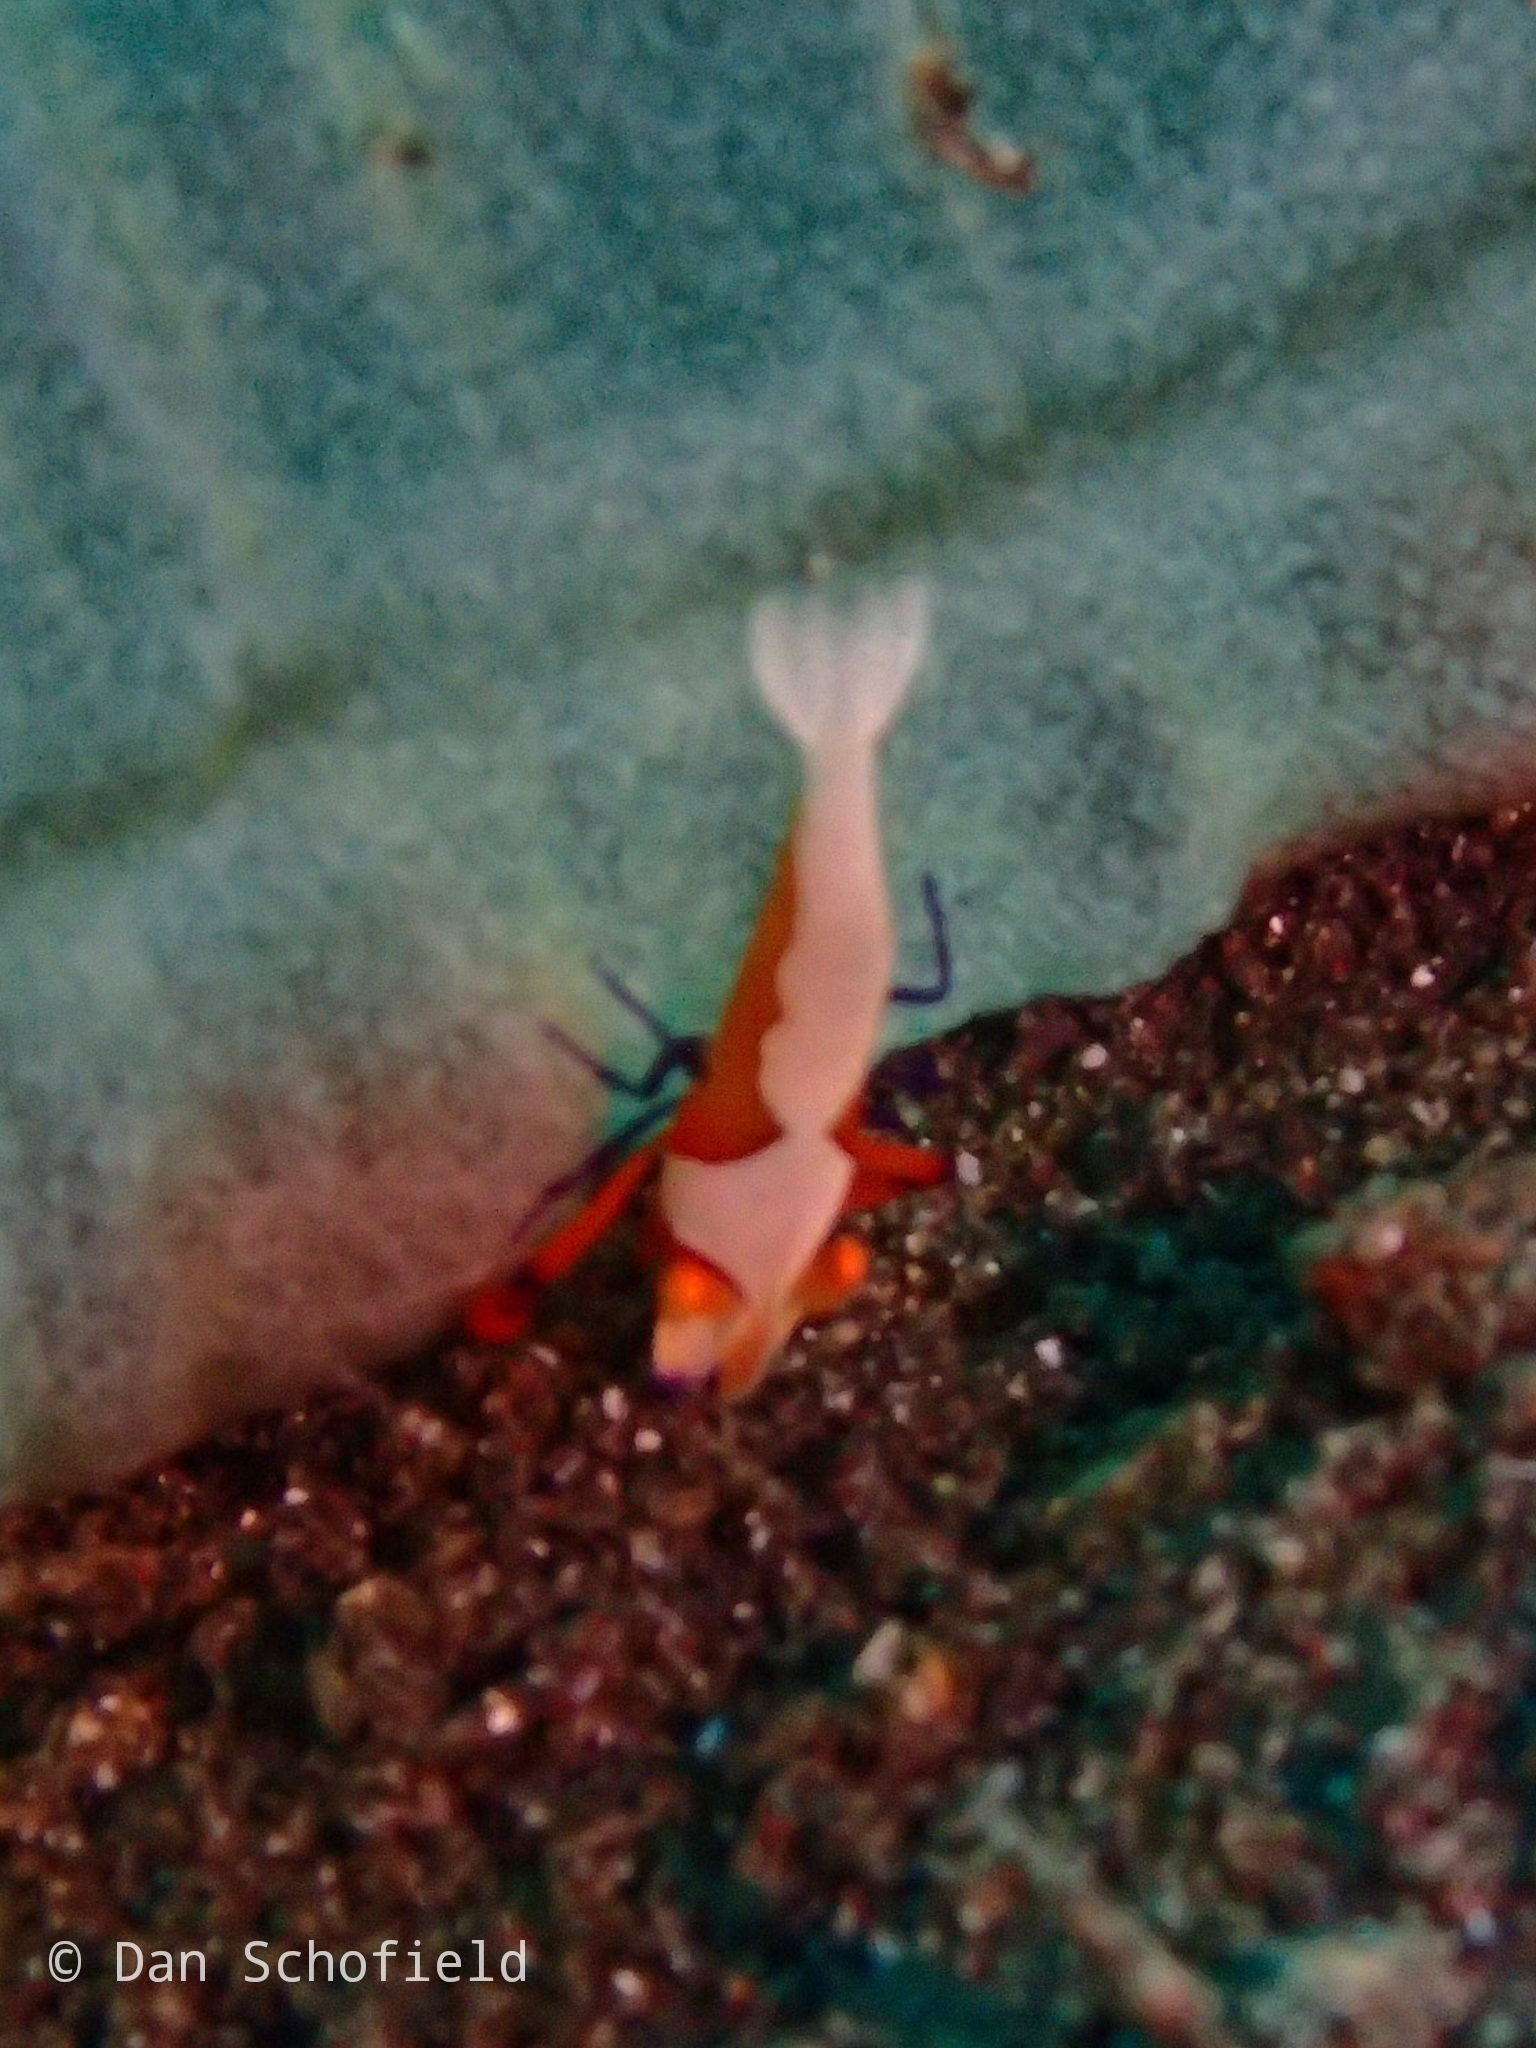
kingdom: Animalia
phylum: Arthropoda
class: Malacostraca
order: Decapoda
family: Palaemonidae
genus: Periclimenes
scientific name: Periclimenes rex
